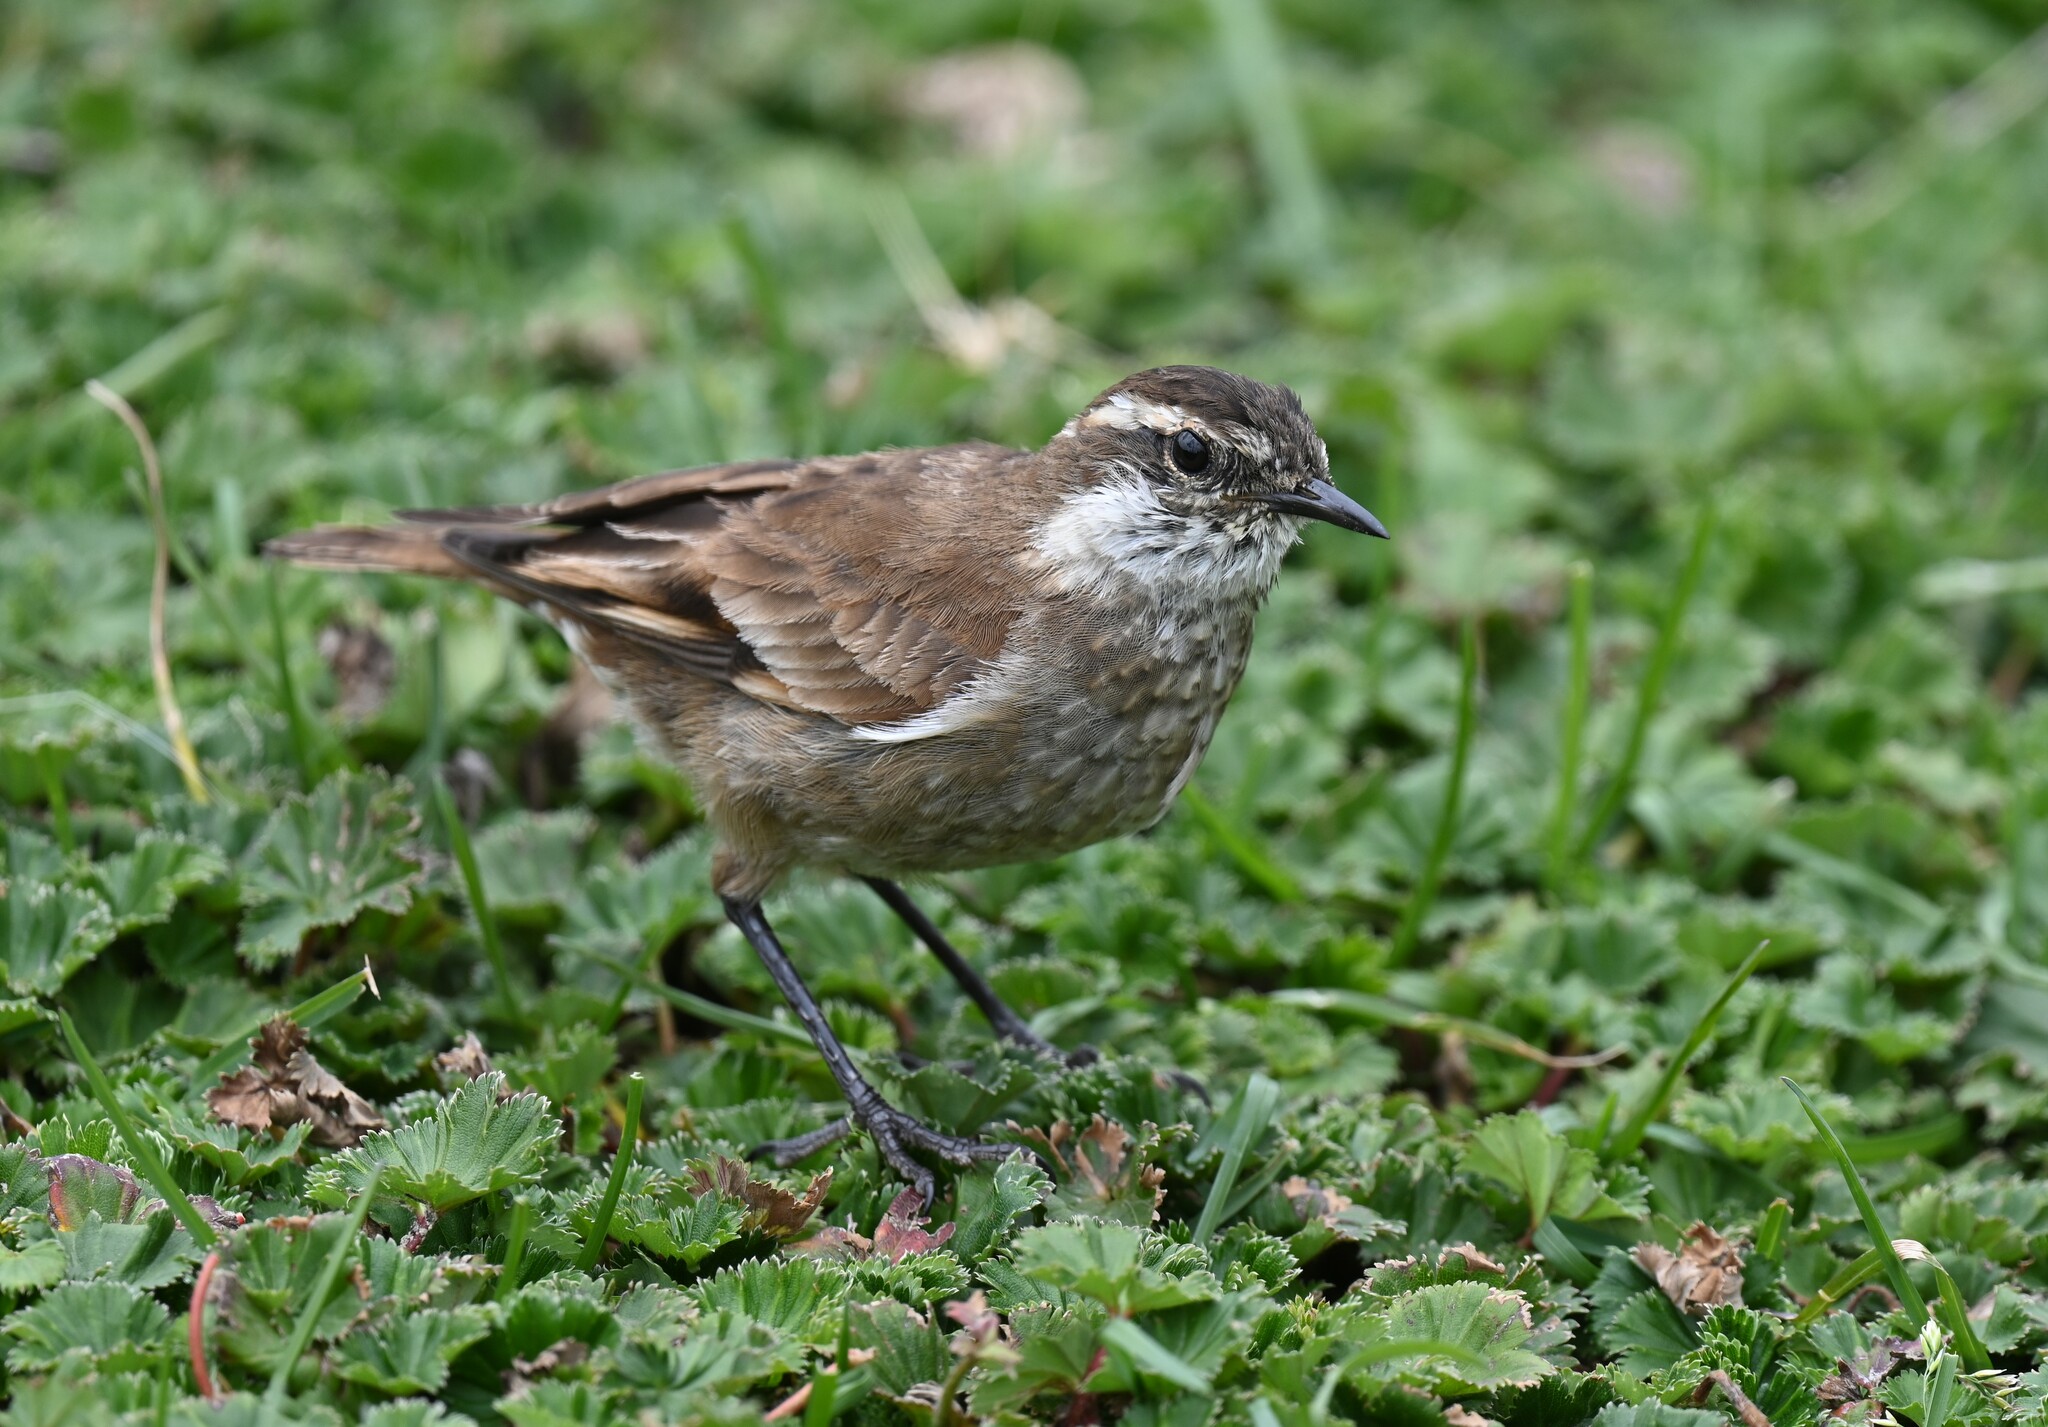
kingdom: Animalia
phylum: Chordata
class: Aves
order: Passeriformes
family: Furnariidae
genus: Cinclodes
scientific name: Cinclodes albidiventris
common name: Chestnut-winged cinclodes
